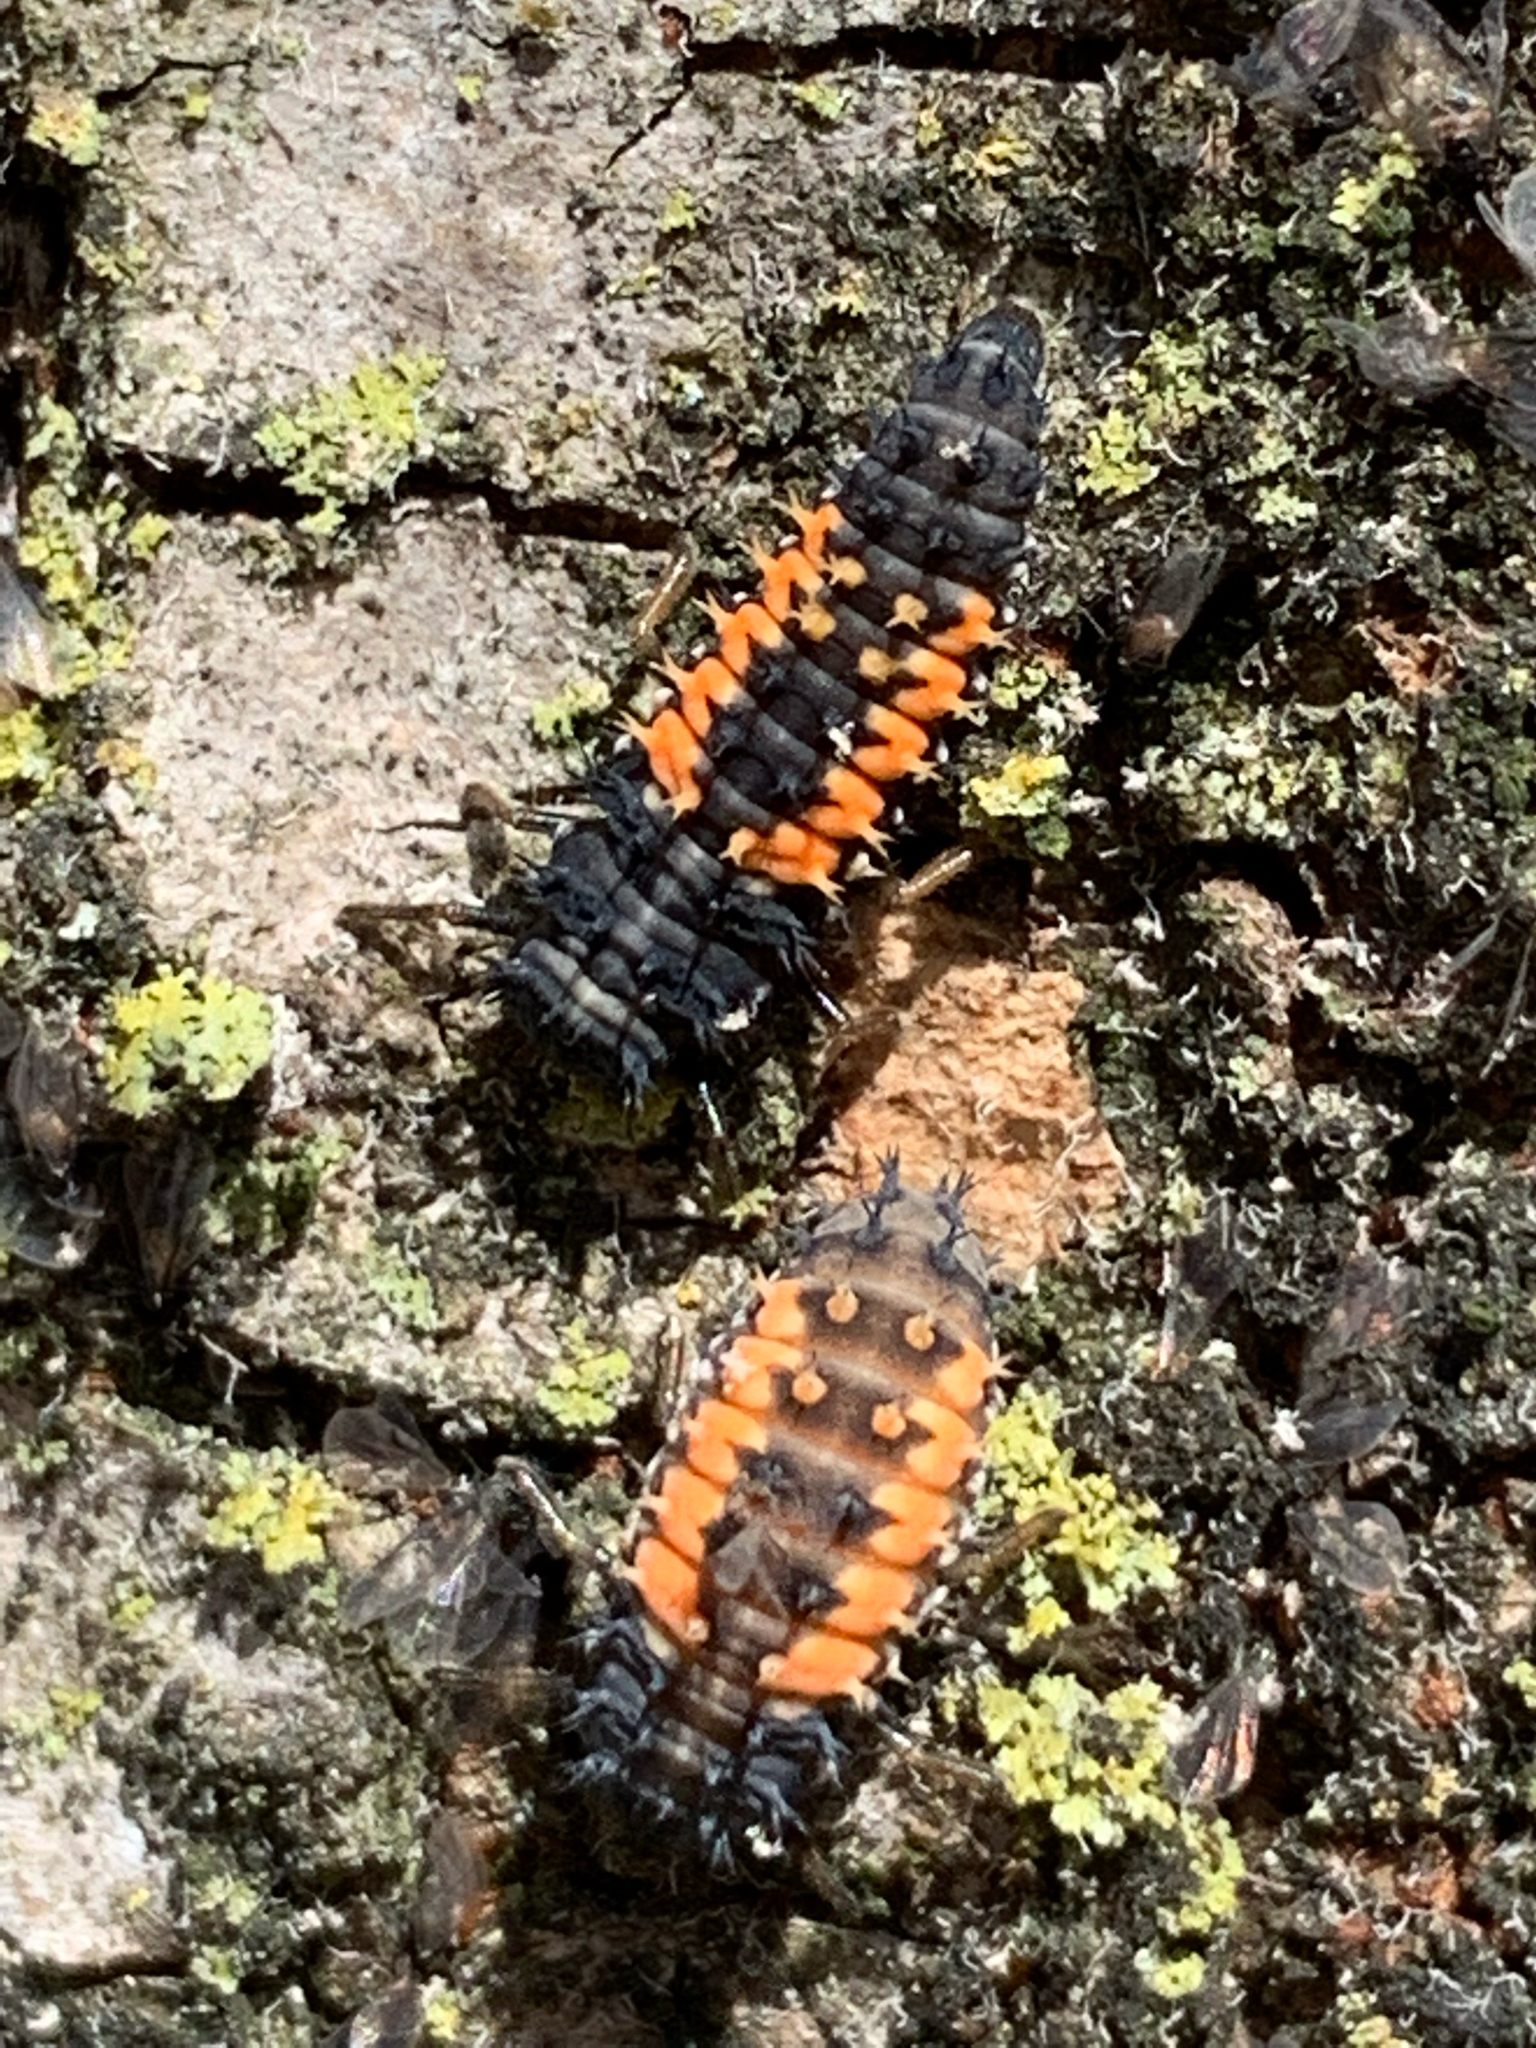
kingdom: Animalia
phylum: Arthropoda
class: Insecta
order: Coleoptera
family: Coccinellidae
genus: Harmonia
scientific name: Harmonia axyridis
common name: Harlequin ladybird
